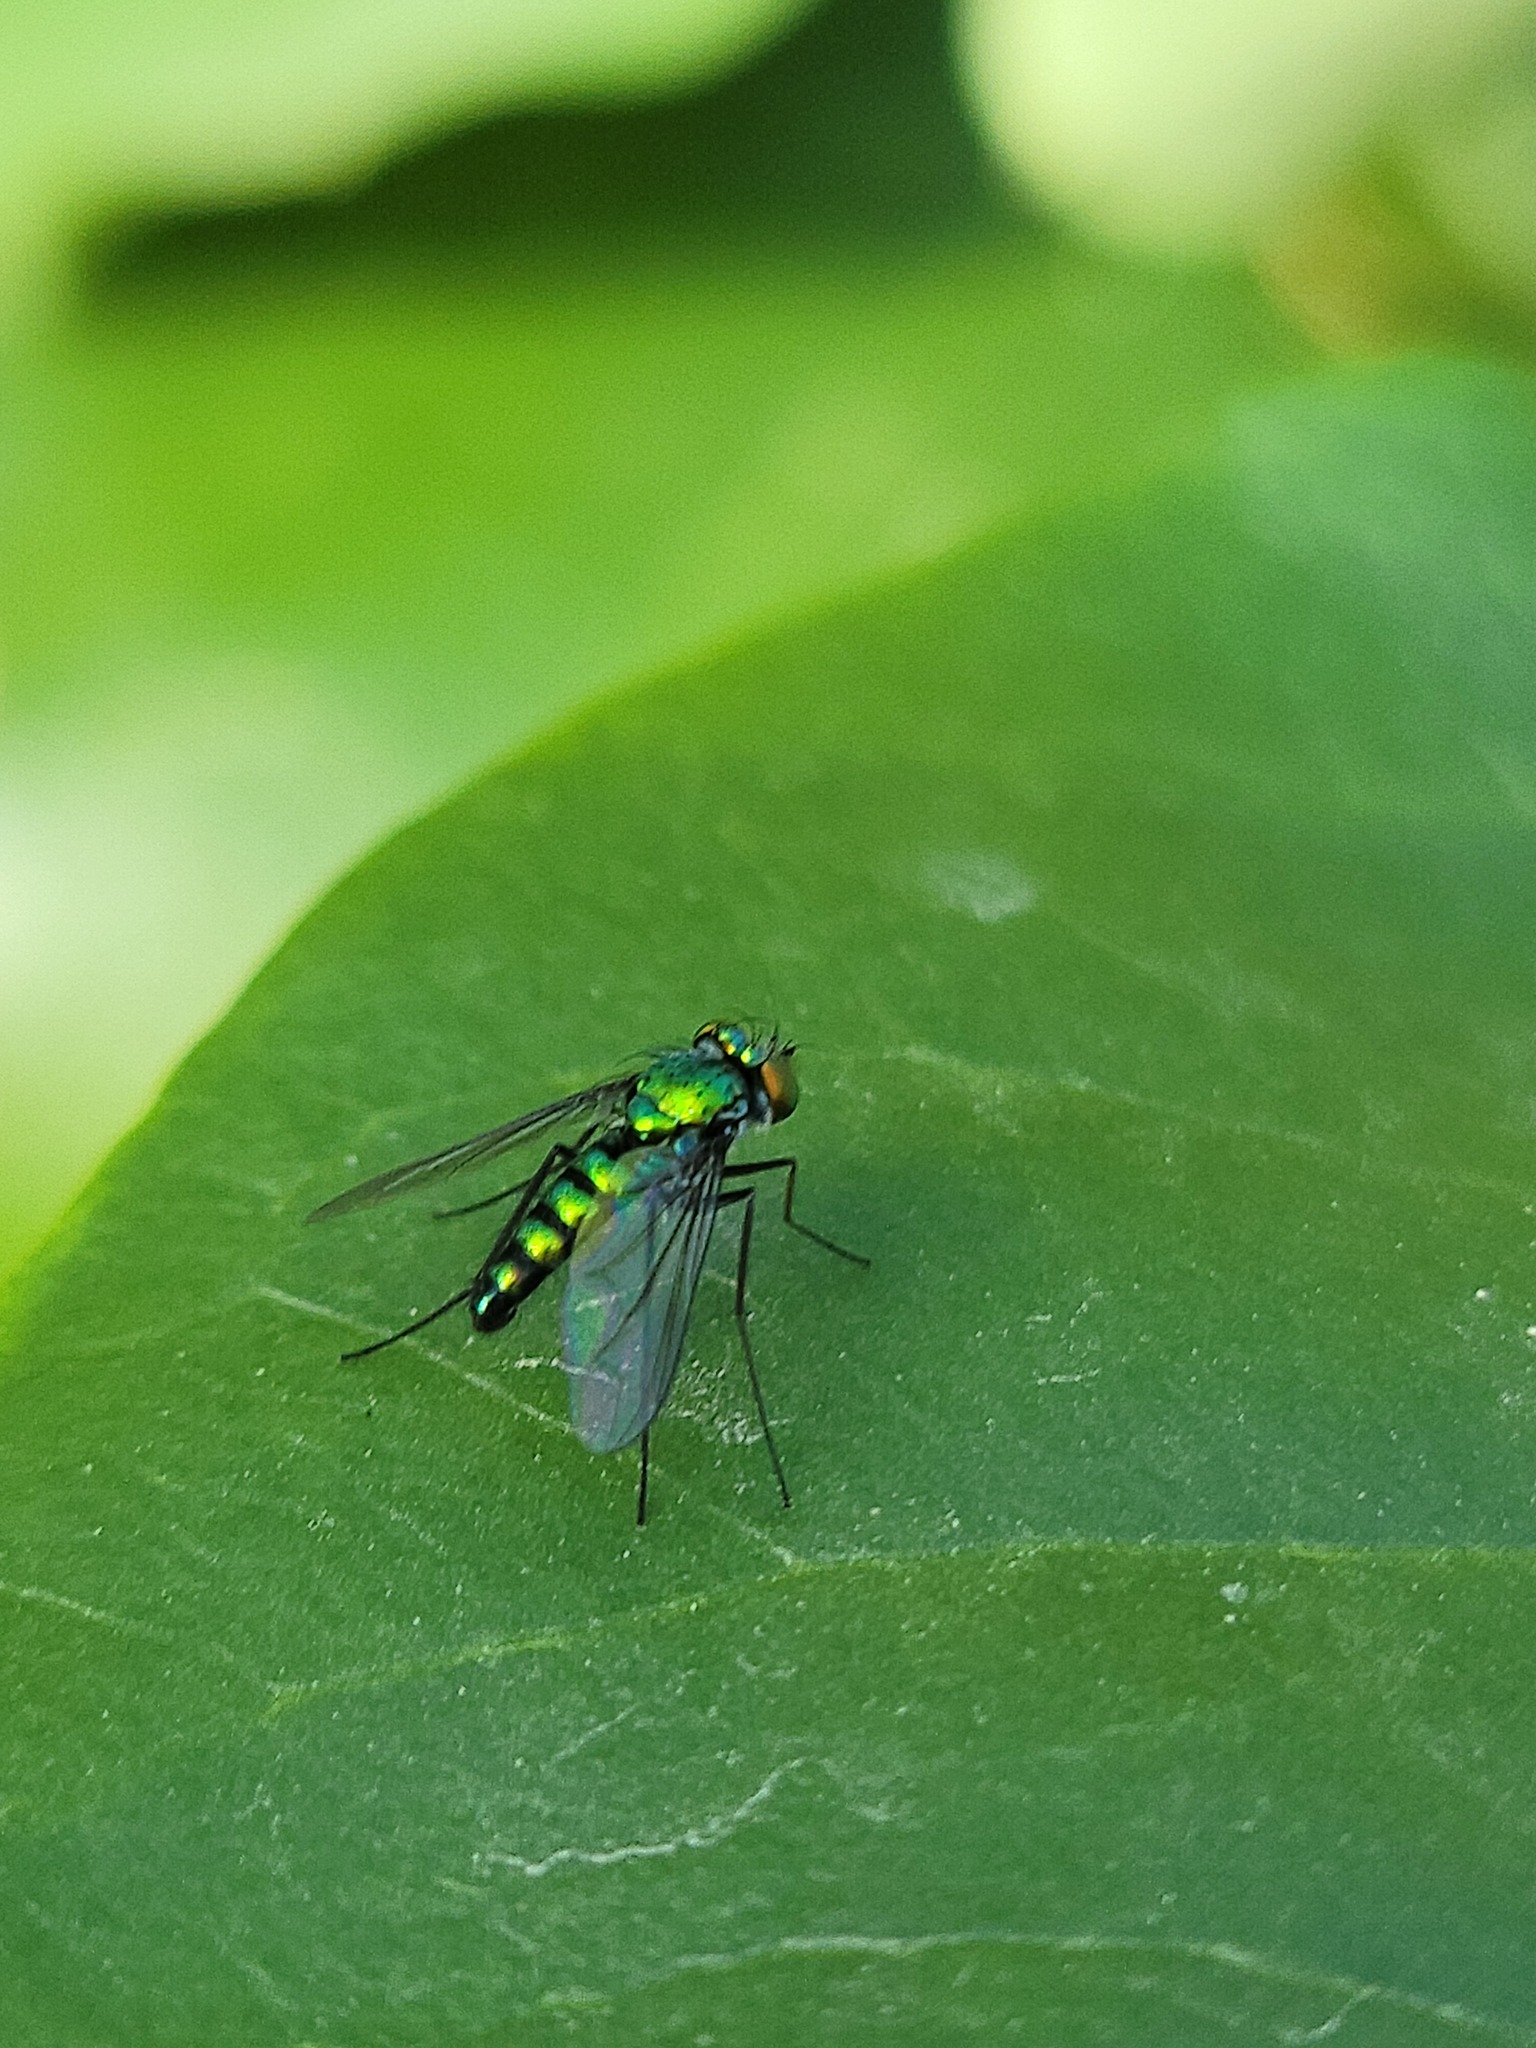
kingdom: Animalia
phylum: Arthropoda
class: Insecta
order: Diptera
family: Dolichopodidae
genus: Condylostylus
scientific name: Condylostylus longicornis
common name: Long-legged fly
